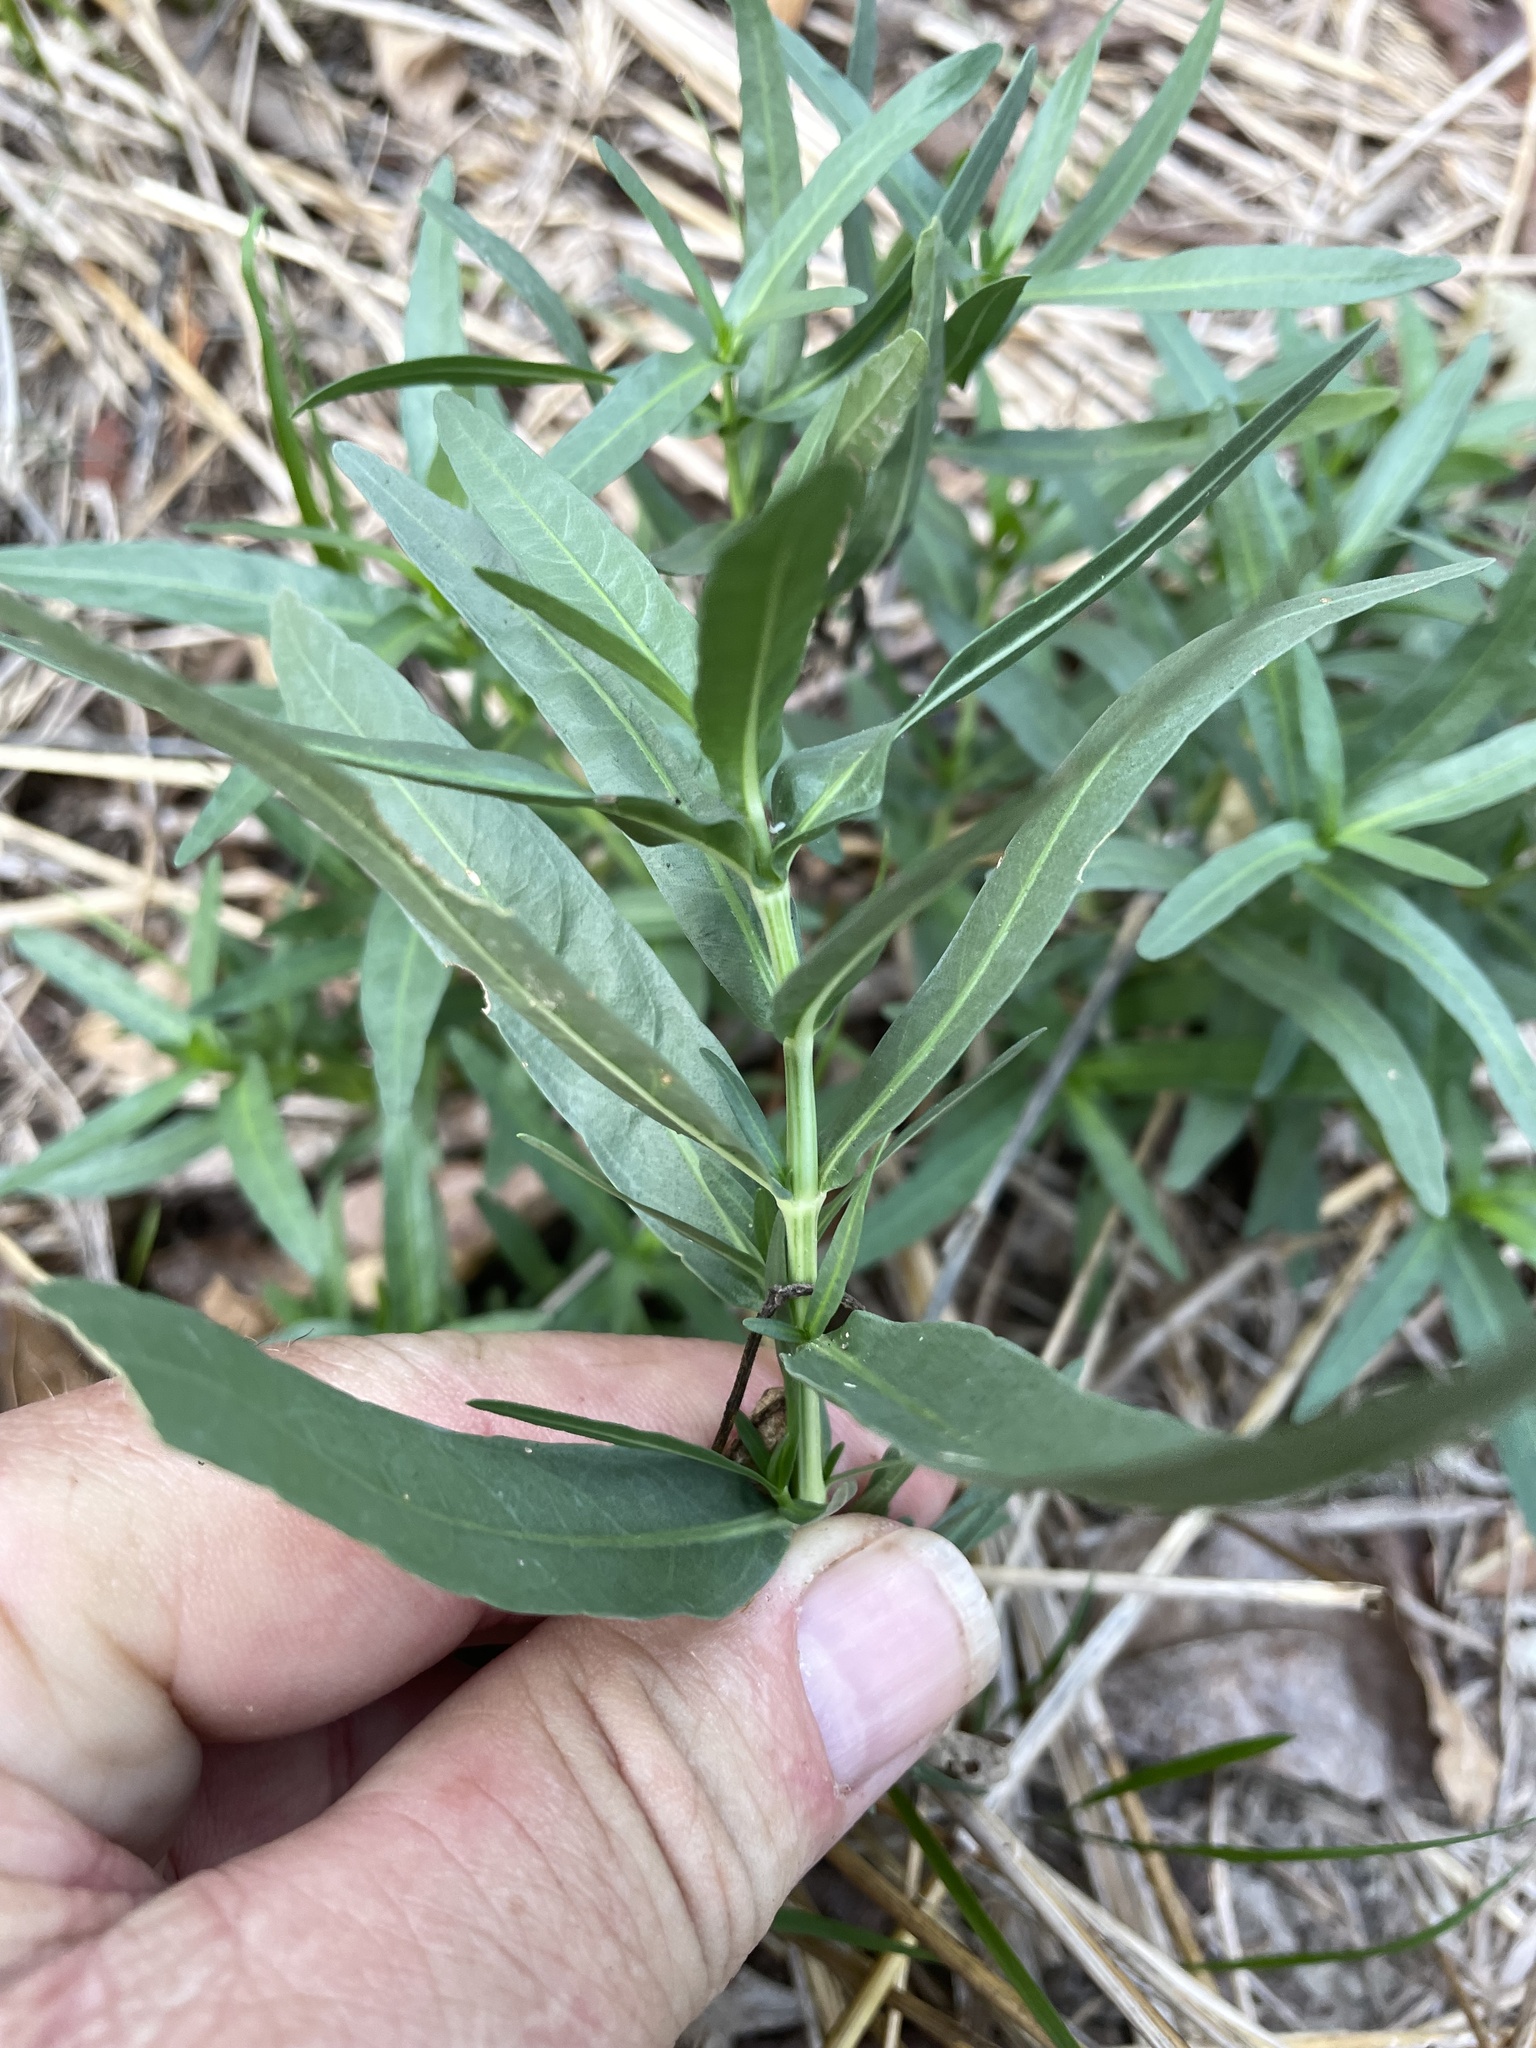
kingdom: Plantae
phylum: Tracheophyta
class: Magnoliopsida
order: Lamiales
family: Acanthaceae
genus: Dianthera
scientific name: Dianthera americana
